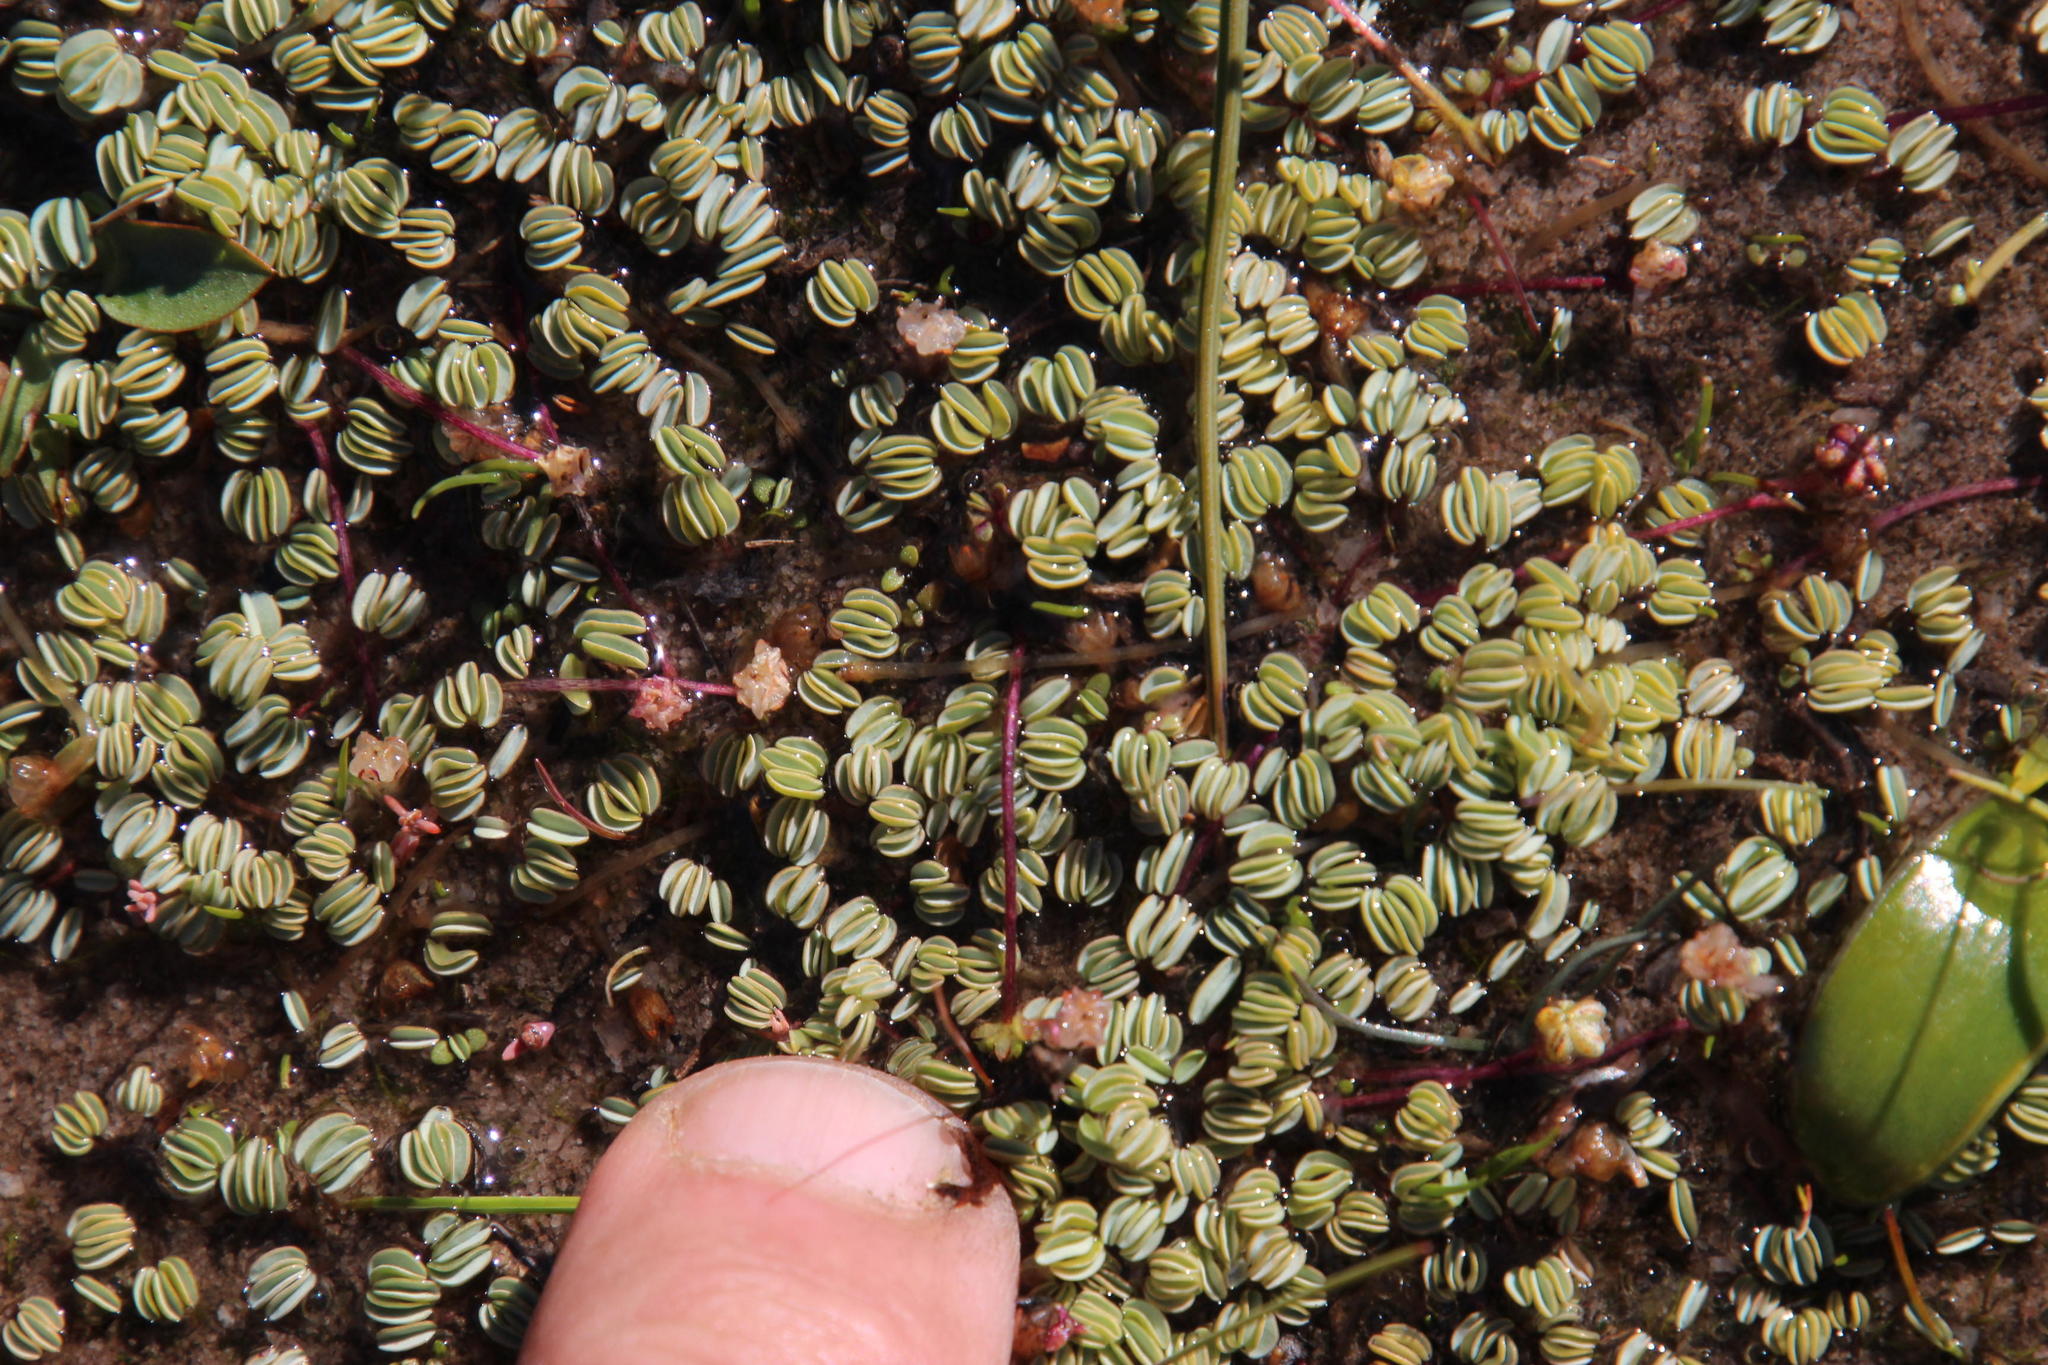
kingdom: Plantae
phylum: Tracheophyta
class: Magnoliopsida
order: Oxalidales
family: Oxalidaceae
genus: Oxalis
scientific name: Oxalis oculifera
